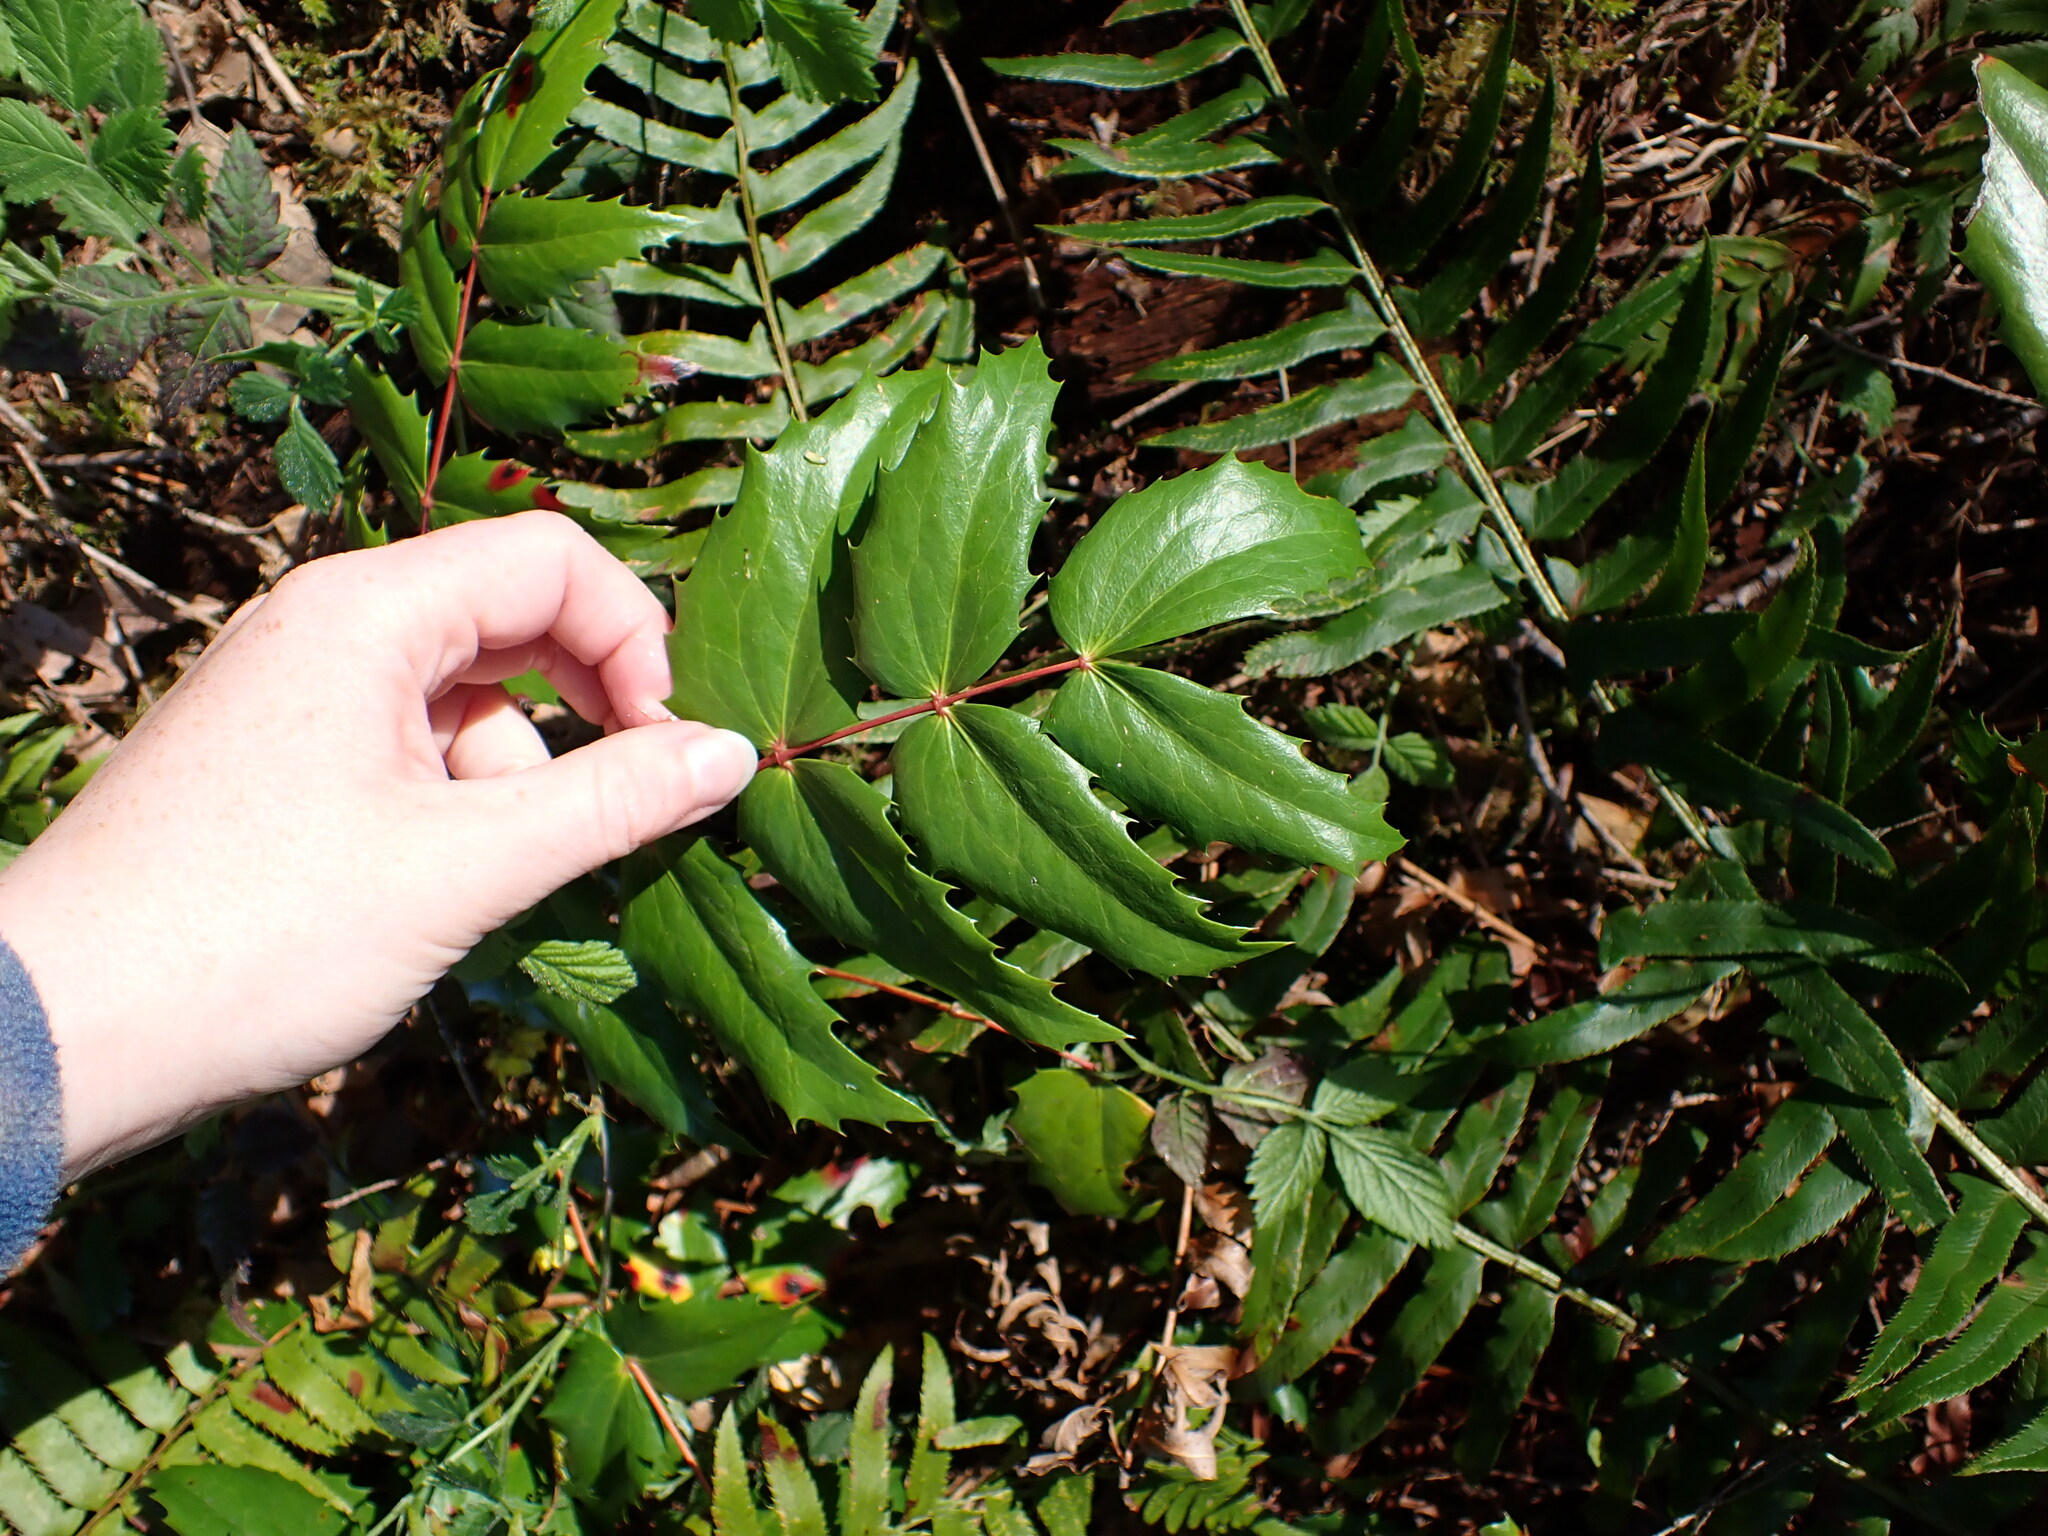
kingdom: Plantae
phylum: Tracheophyta
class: Magnoliopsida
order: Ranunculales
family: Berberidaceae
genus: Mahonia
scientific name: Mahonia nervosa
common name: Cascade oregon-grape
